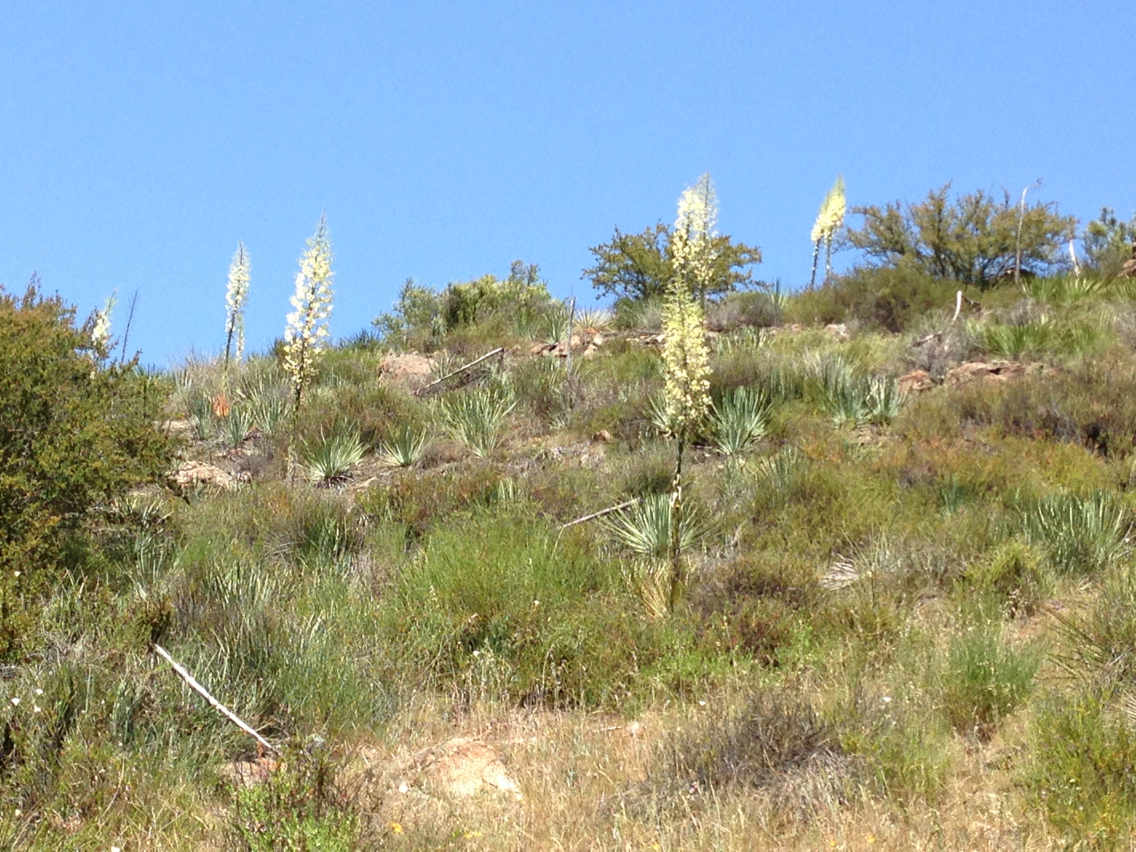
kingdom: Plantae
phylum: Tracheophyta
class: Liliopsida
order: Asparagales
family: Asparagaceae
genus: Hesperoyucca
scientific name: Hesperoyucca whipplei
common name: Our lord's-candle
